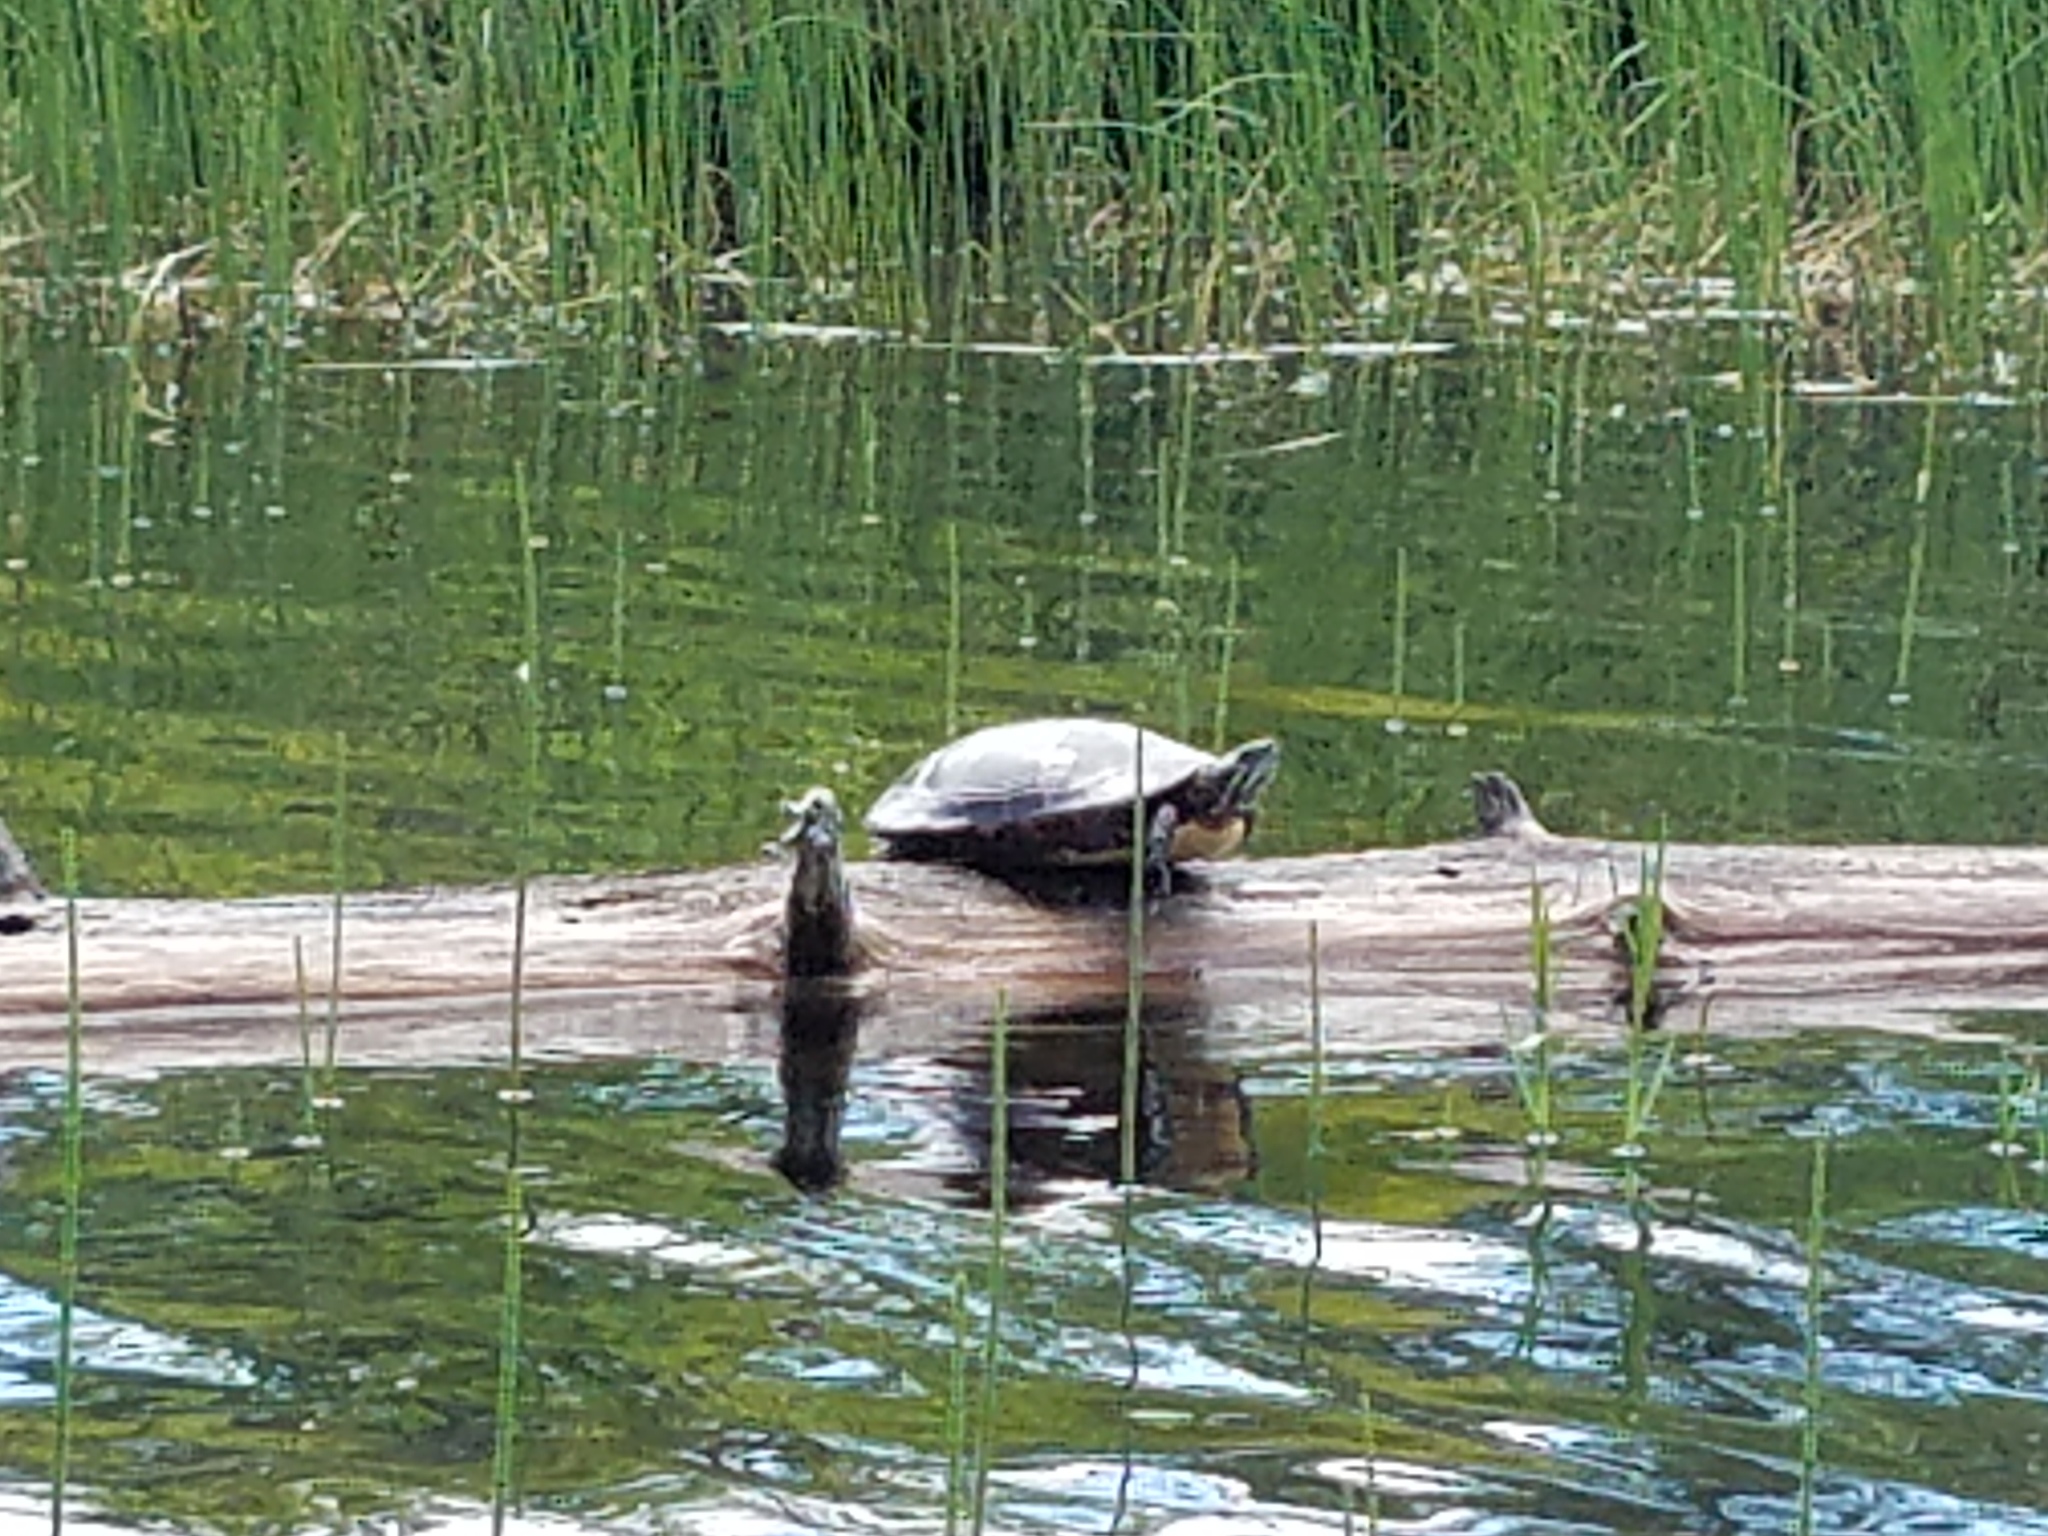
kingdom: Animalia
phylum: Chordata
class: Testudines
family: Emydidae
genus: Chrysemys
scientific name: Chrysemys picta
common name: Painted turtle
